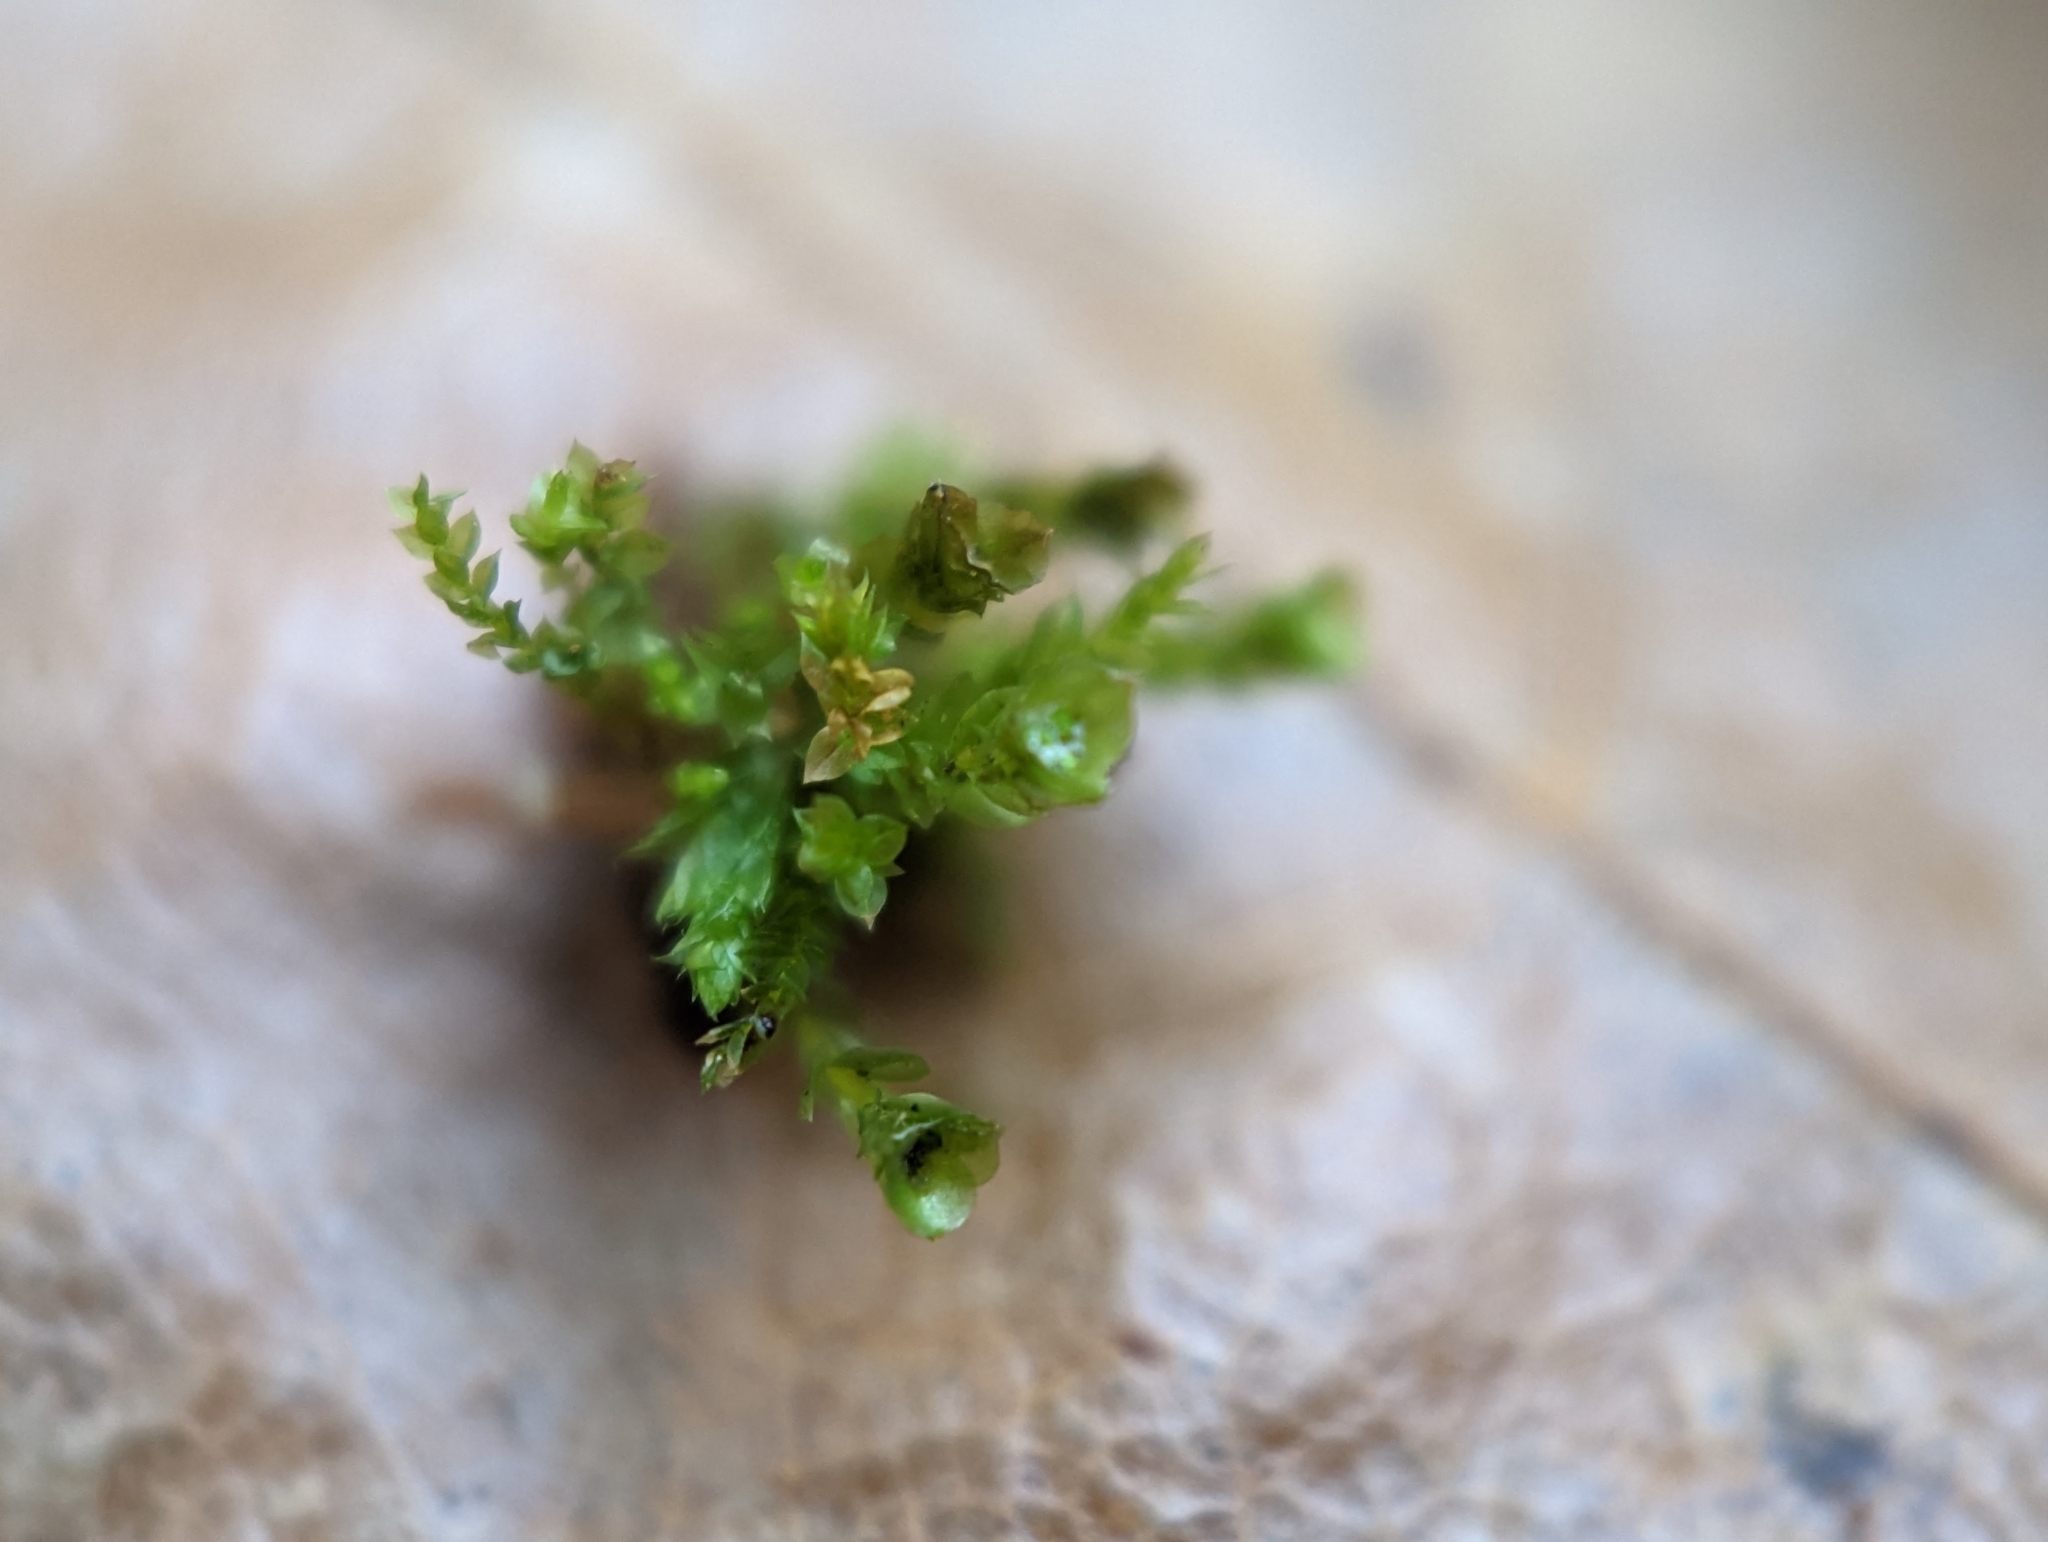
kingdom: Plantae
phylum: Bryophyta
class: Polytrichopsida
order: Tetraphidales
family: Tetraphidaceae
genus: Tetraphis
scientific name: Tetraphis pellucida
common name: Common four-toothed moss
